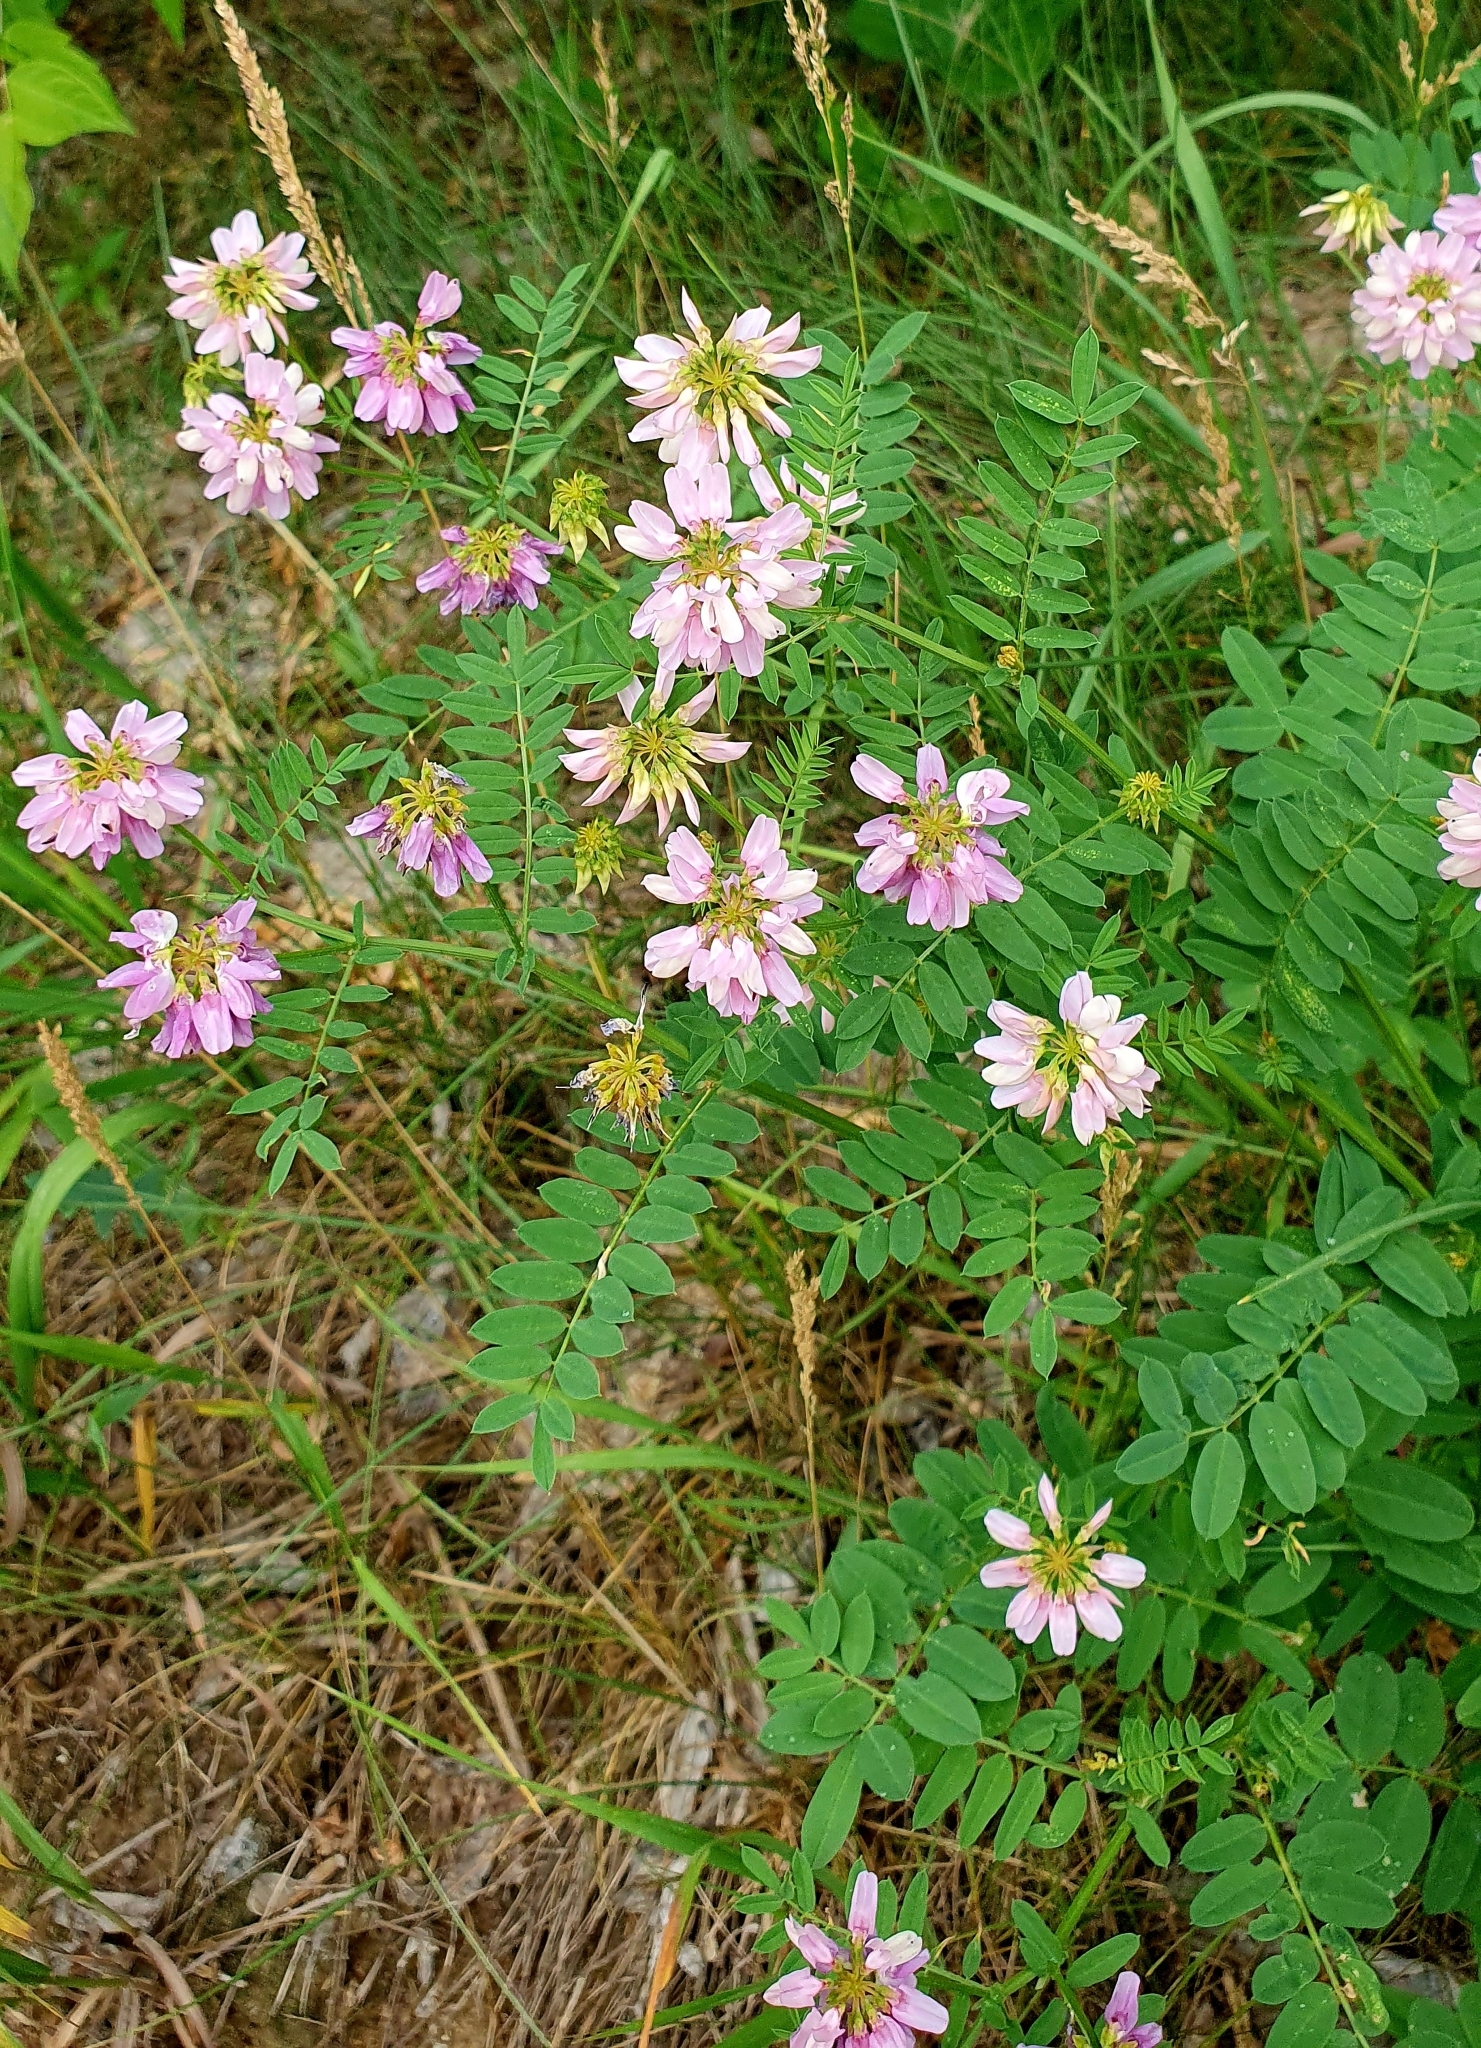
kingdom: Plantae
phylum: Tracheophyta
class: Magnoliopsida
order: Fabales
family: Fabaceae
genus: Coronilla
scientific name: Coronilla varia
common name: Crownvetch
